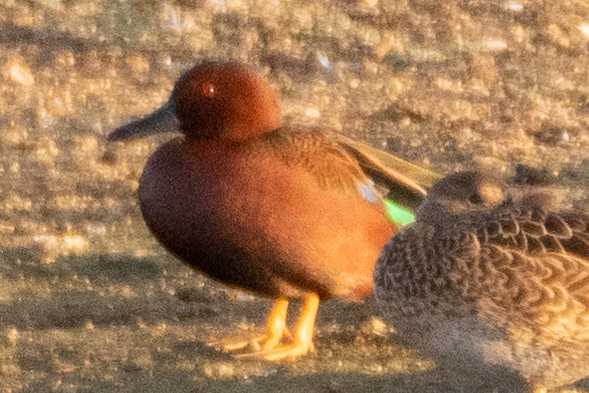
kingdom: Animalia
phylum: Chordata
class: Aves
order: Anseriformes
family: Anatidae
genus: Spatula
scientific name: Spatula cyanoptera
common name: Cinnamon teal
